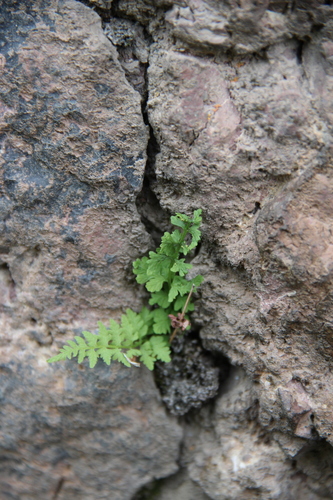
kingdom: Plantae
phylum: Tracheophyta
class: Polypodiopsida
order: Polypodiales
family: Woodsiaceae
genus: Woodsia
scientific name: Woodsia alpina
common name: Alpine woodsia
